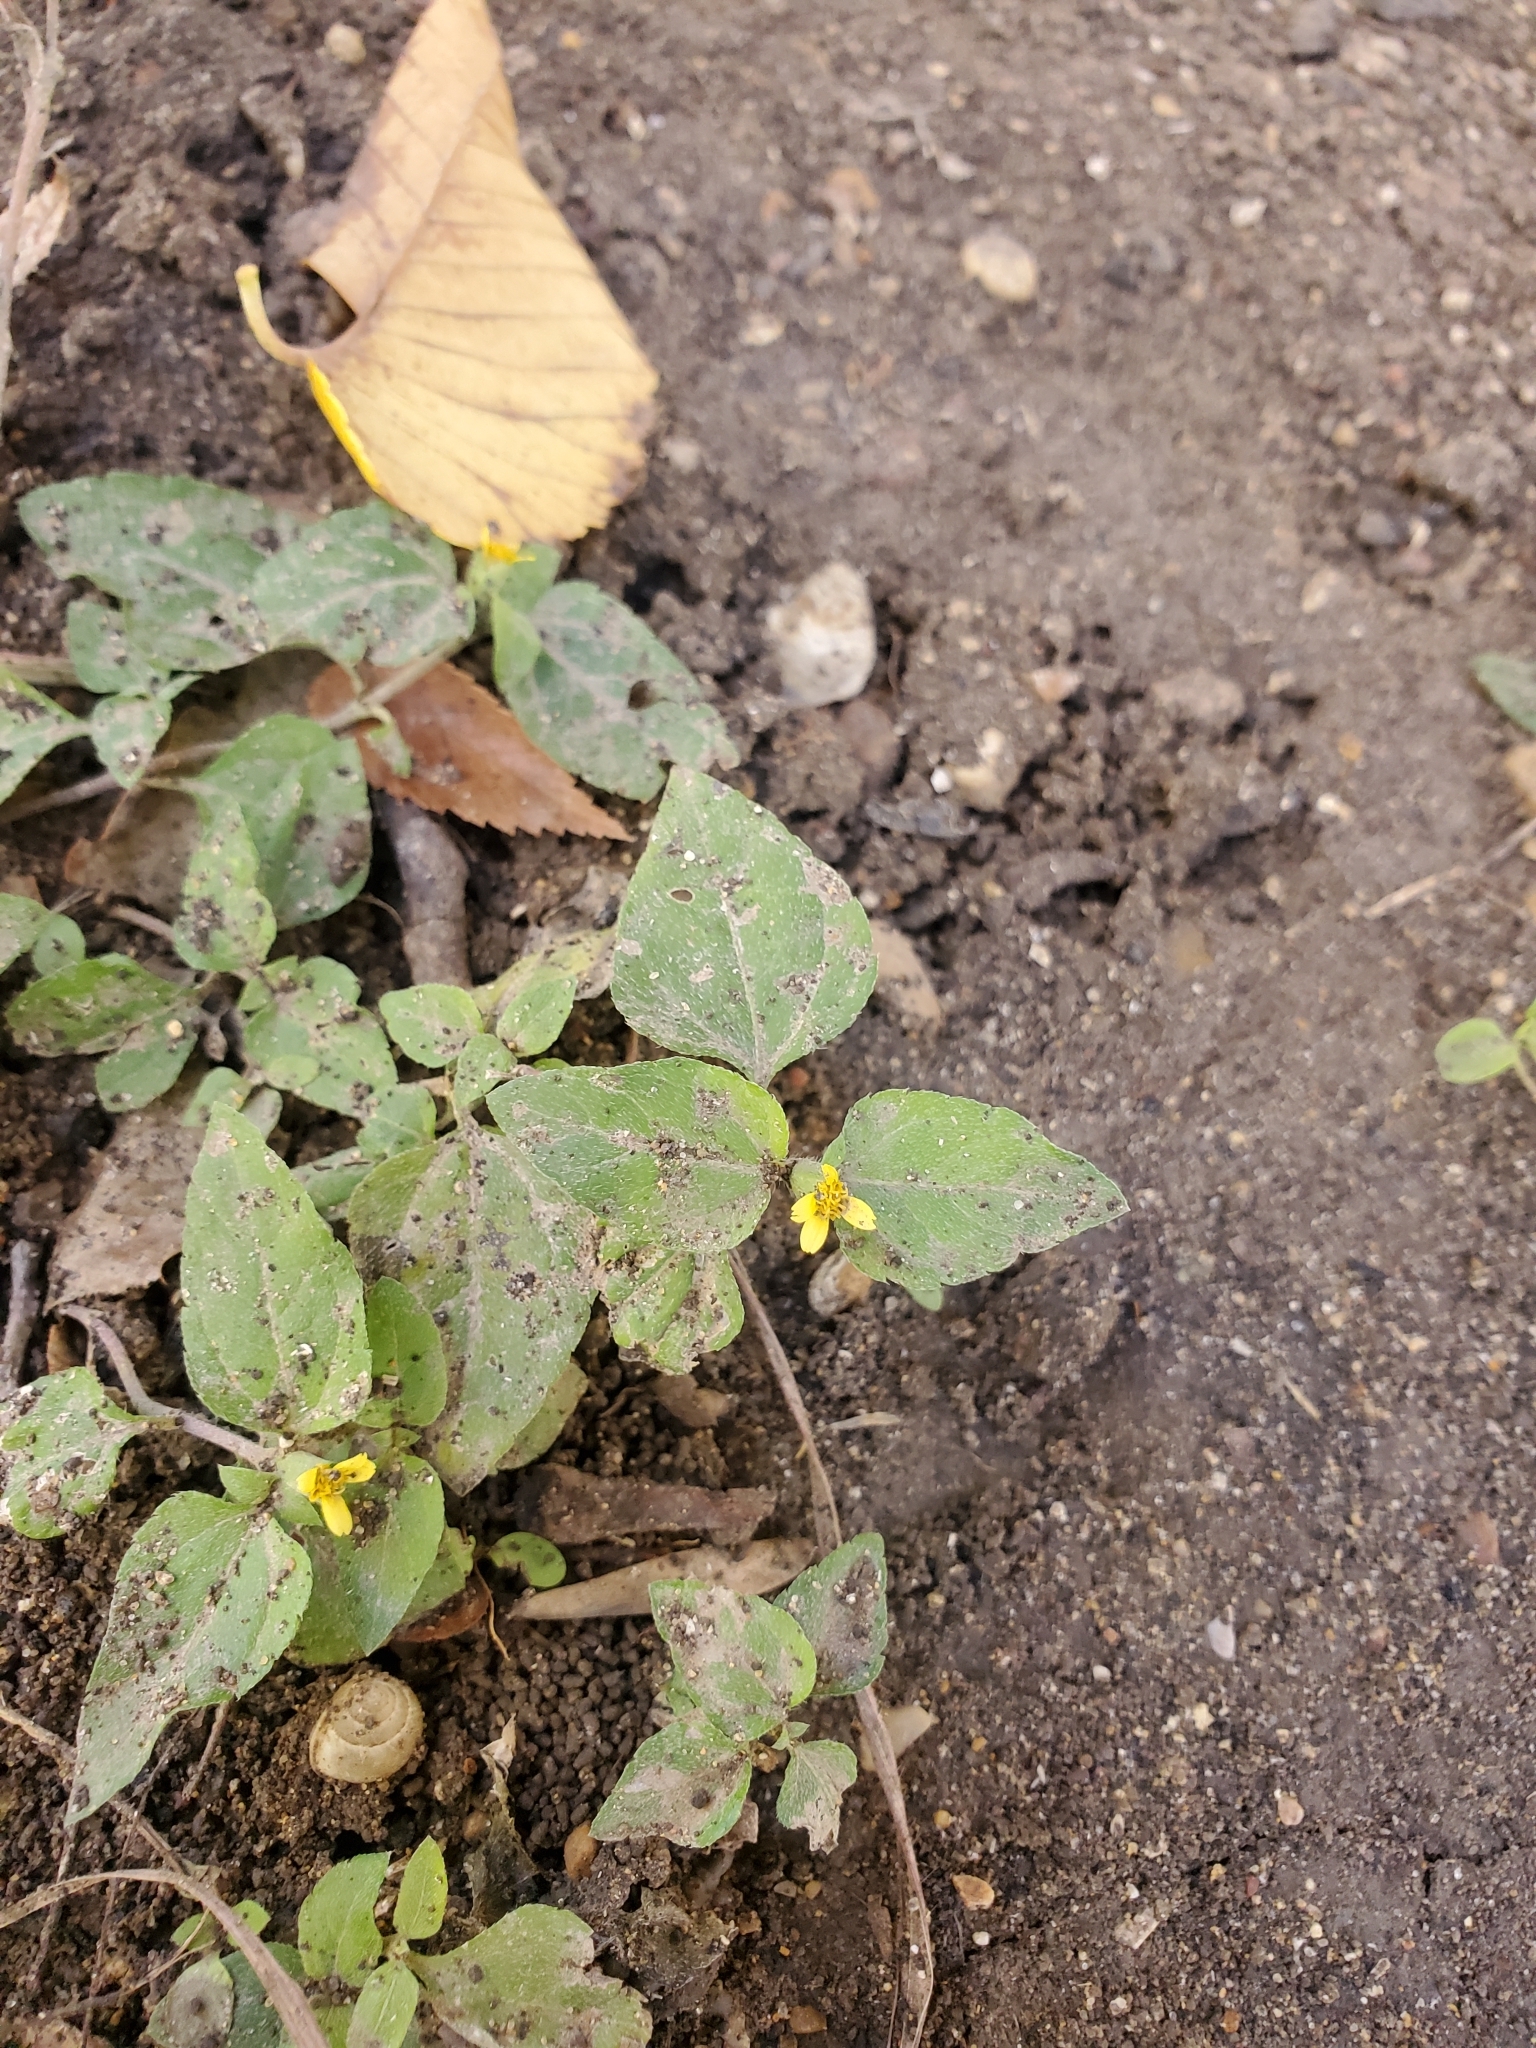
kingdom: Plantae
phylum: Tracheophyta
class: Magnoliopsida
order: Asterales
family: Asteraceae
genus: Calyptocarpus
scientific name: Calyptocarpus vialis
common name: Straggler daisy
